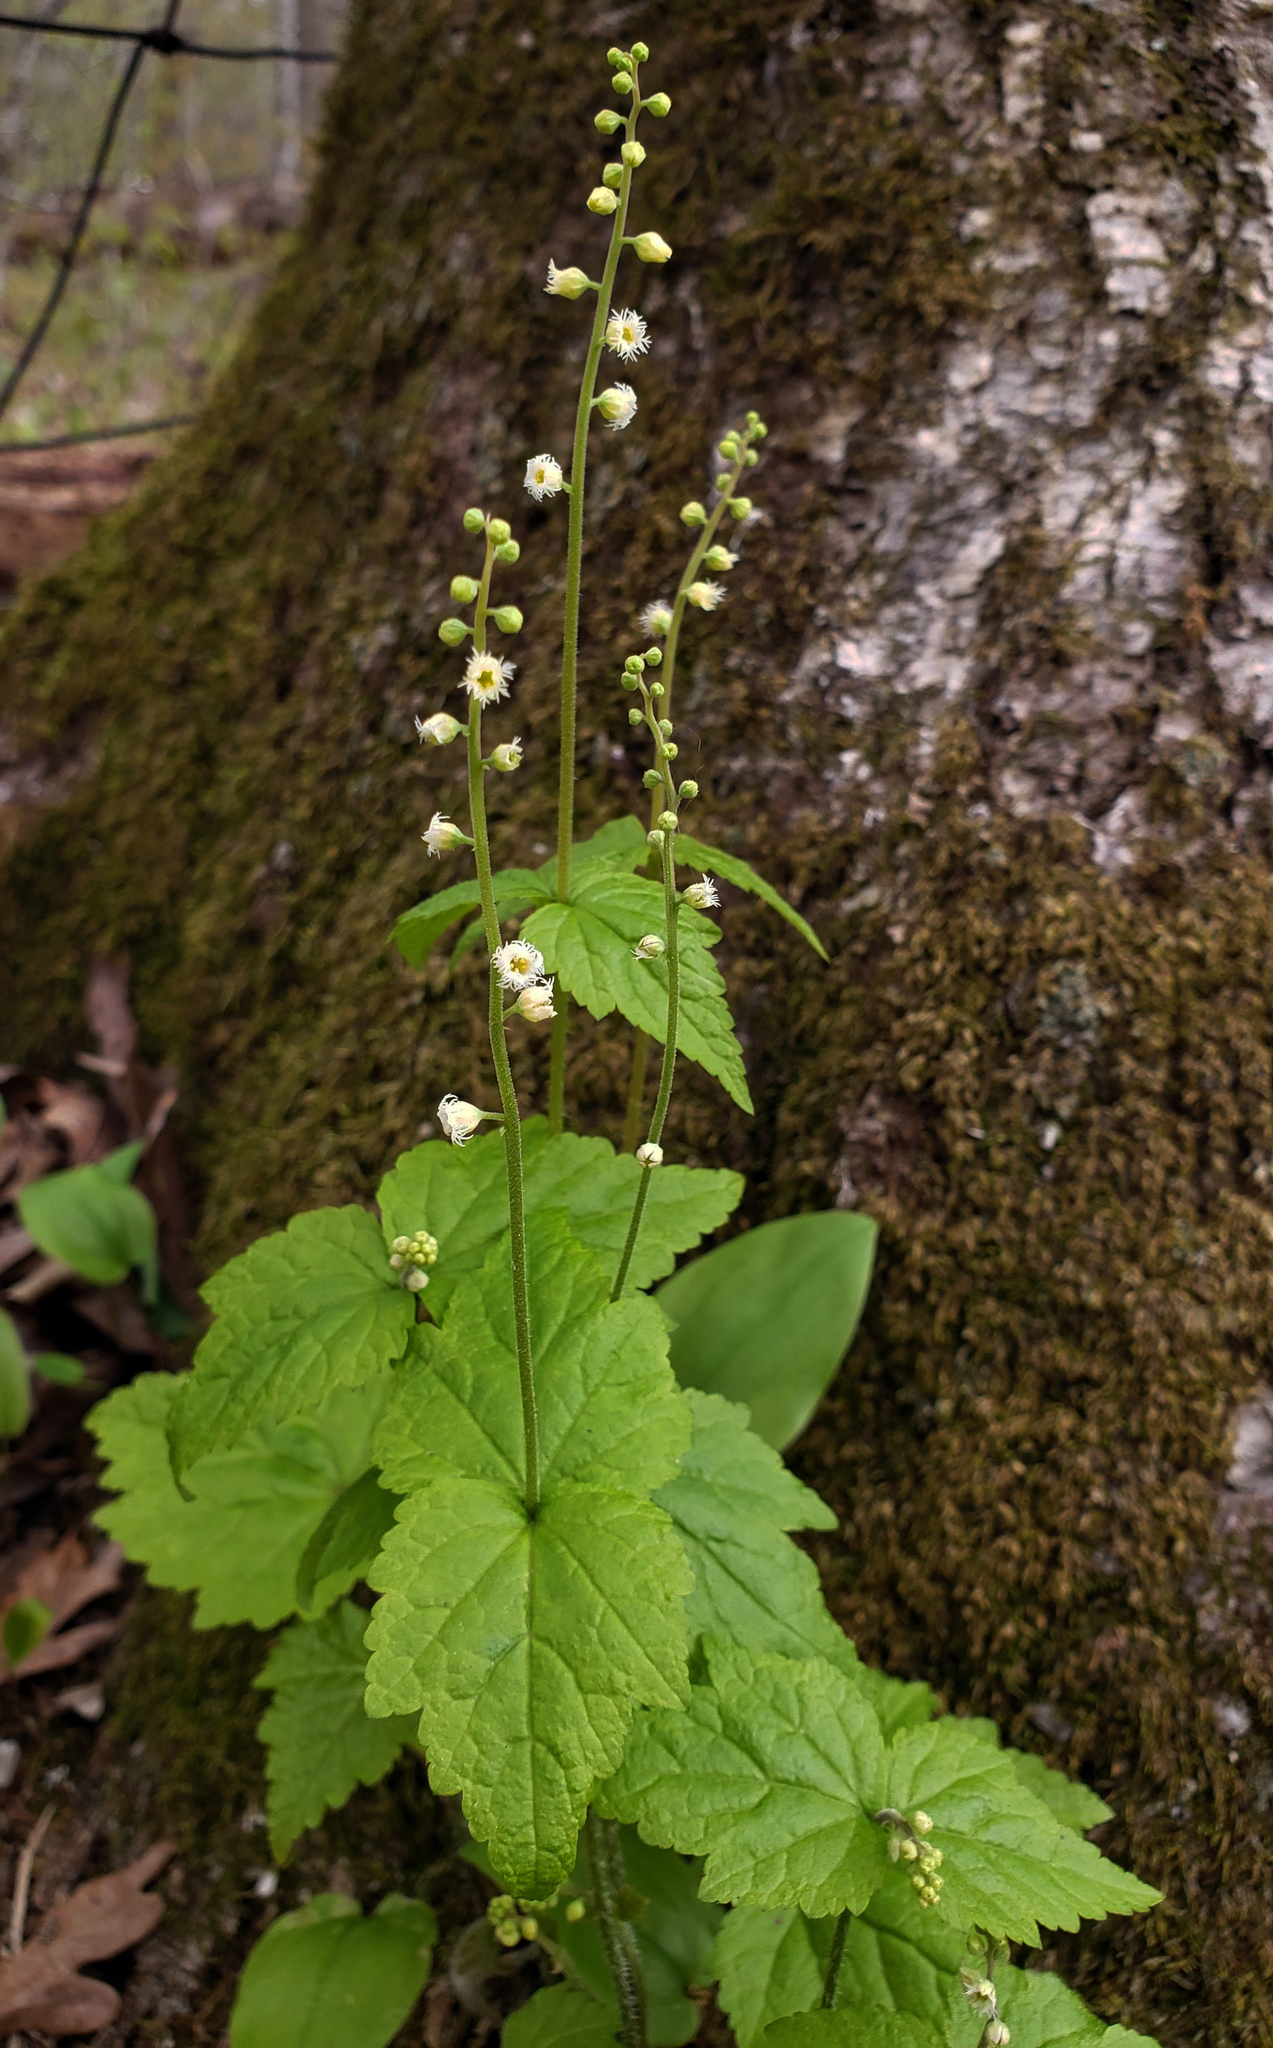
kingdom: Plantae
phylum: Tracheophyta
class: Magnoliopsida
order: Saxifragales
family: Saxifragaceae
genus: Mitella
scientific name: Mitella diphylla
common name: Coolwort
